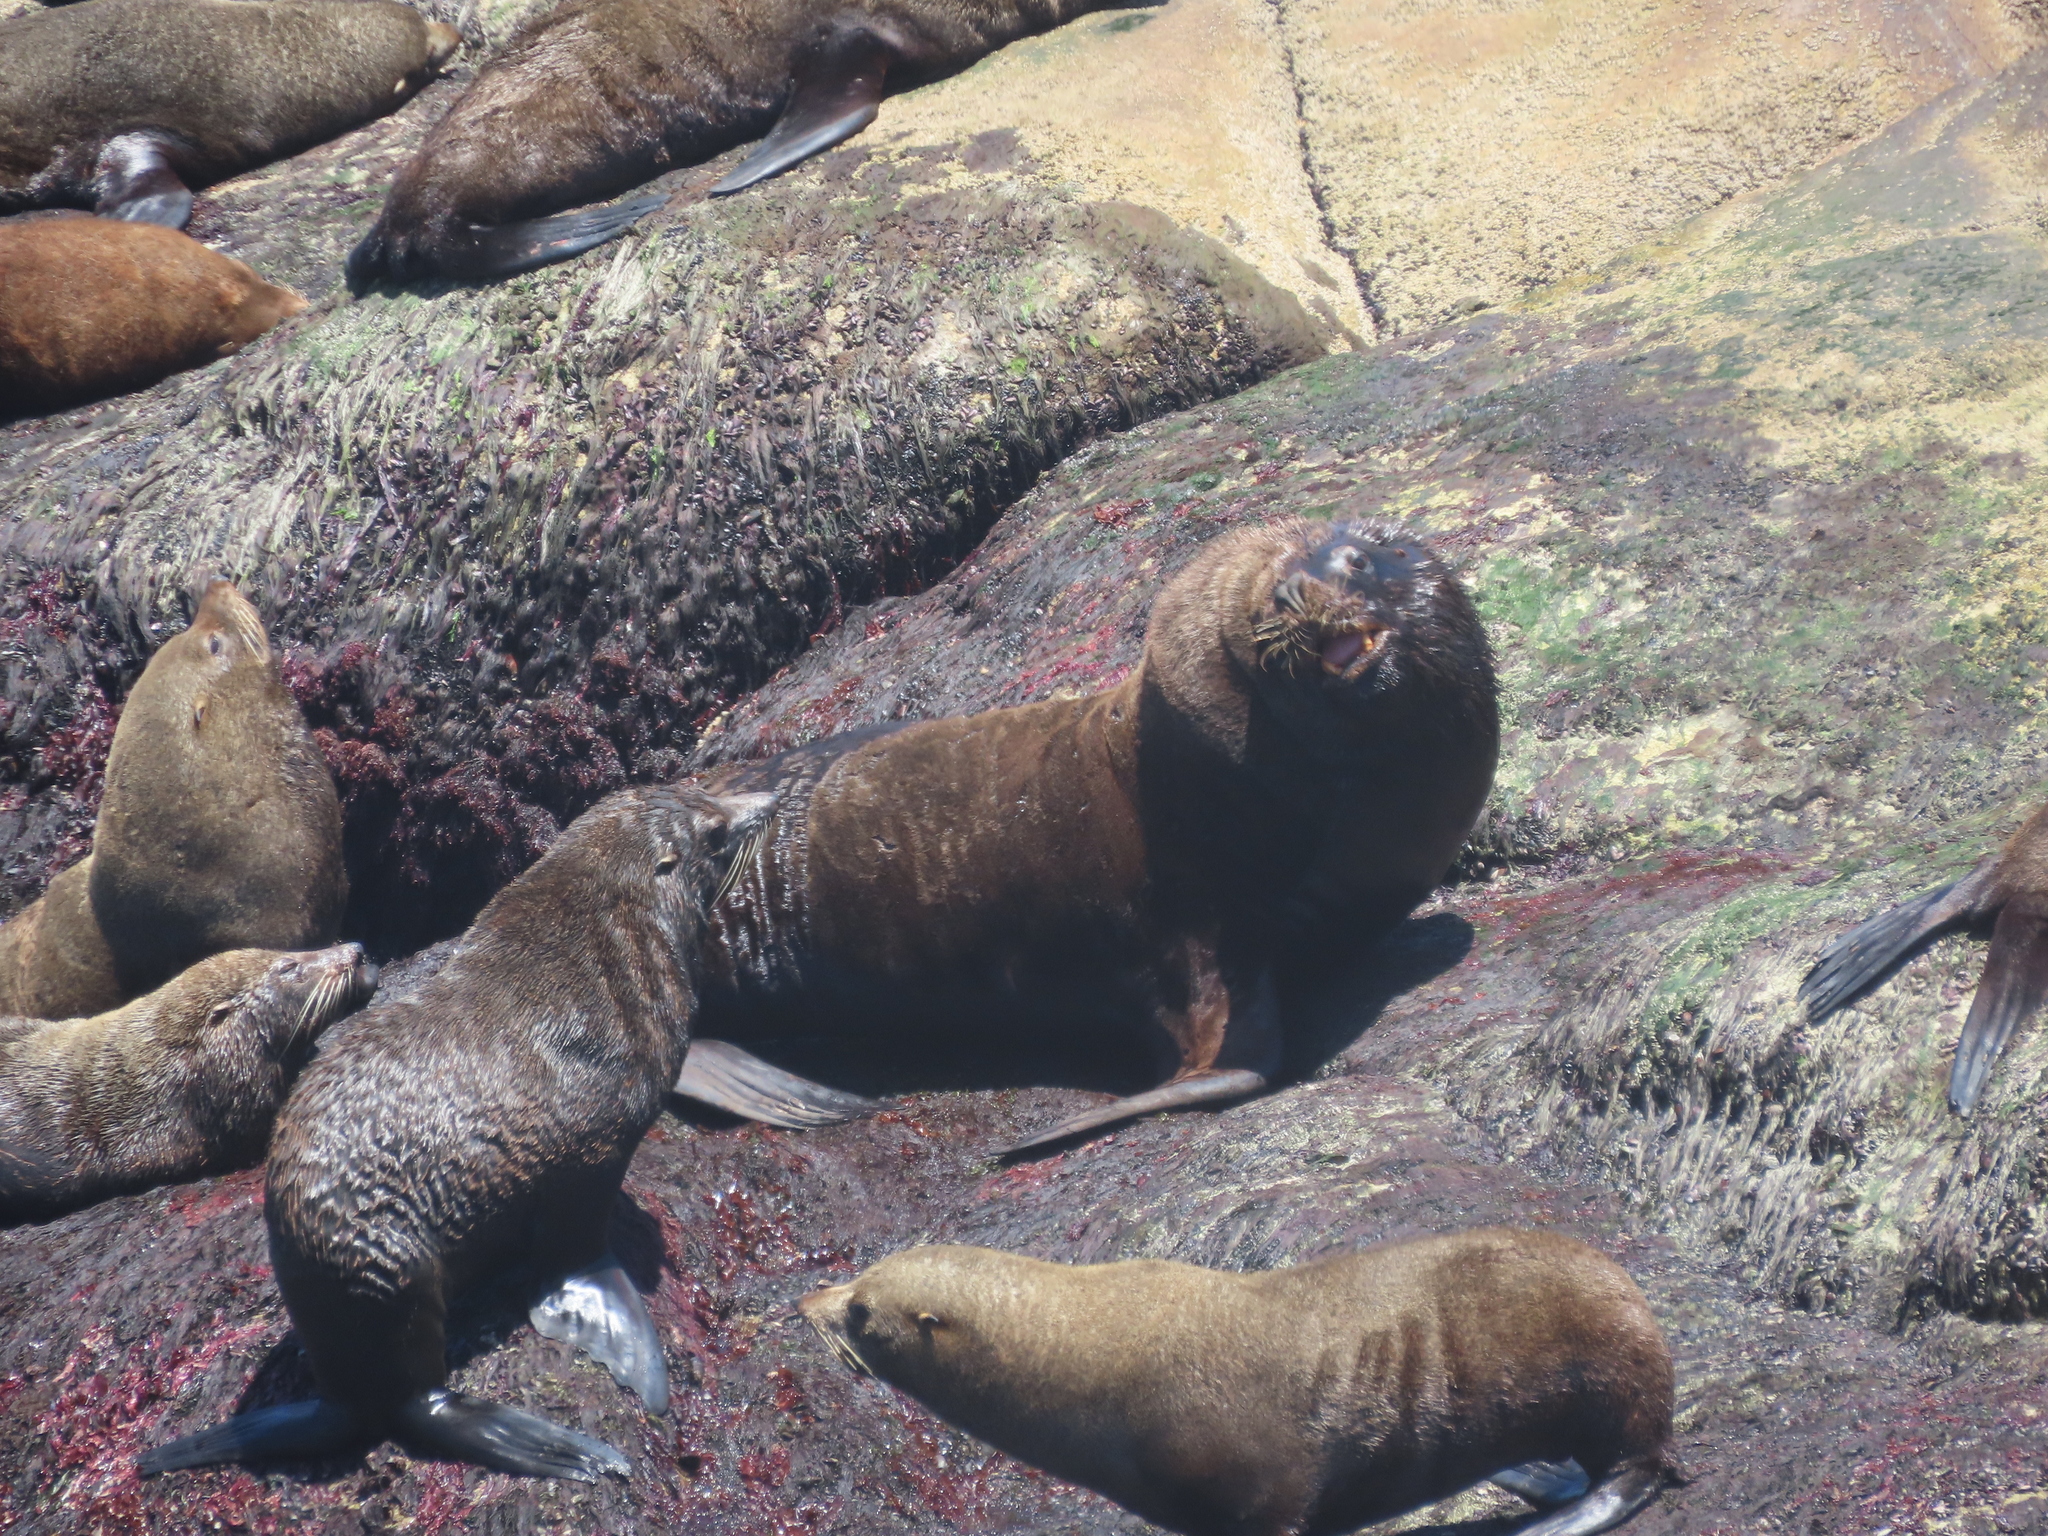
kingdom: Animalia
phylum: Chordata
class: Mammalia
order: Carnivora
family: Otariidae
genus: Arctocephalus
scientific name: Arctocephalus australis
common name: South american fur seal
